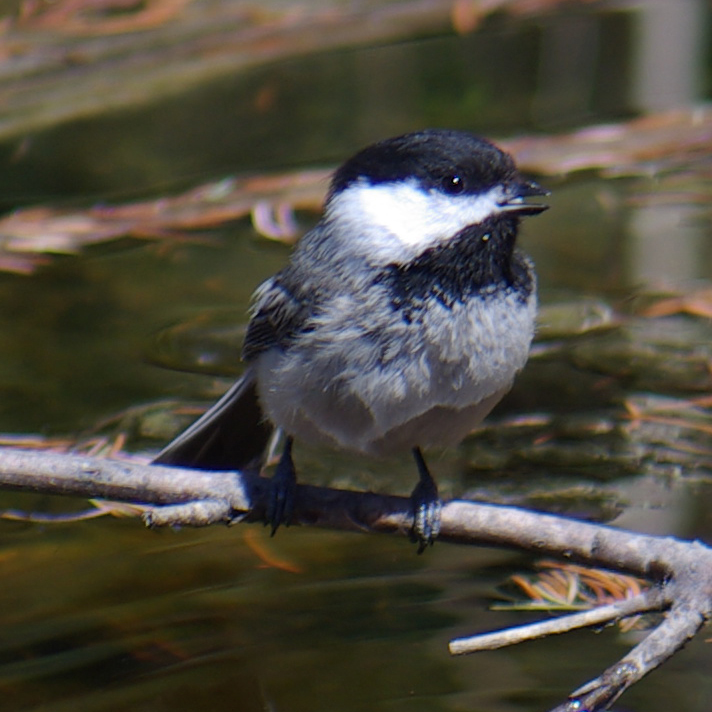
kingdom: Animalia
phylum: Chordata
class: Aves
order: Passeriformes
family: Paridae
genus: Poecile
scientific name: Poecile atricapillus
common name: Black-capped chickadee
